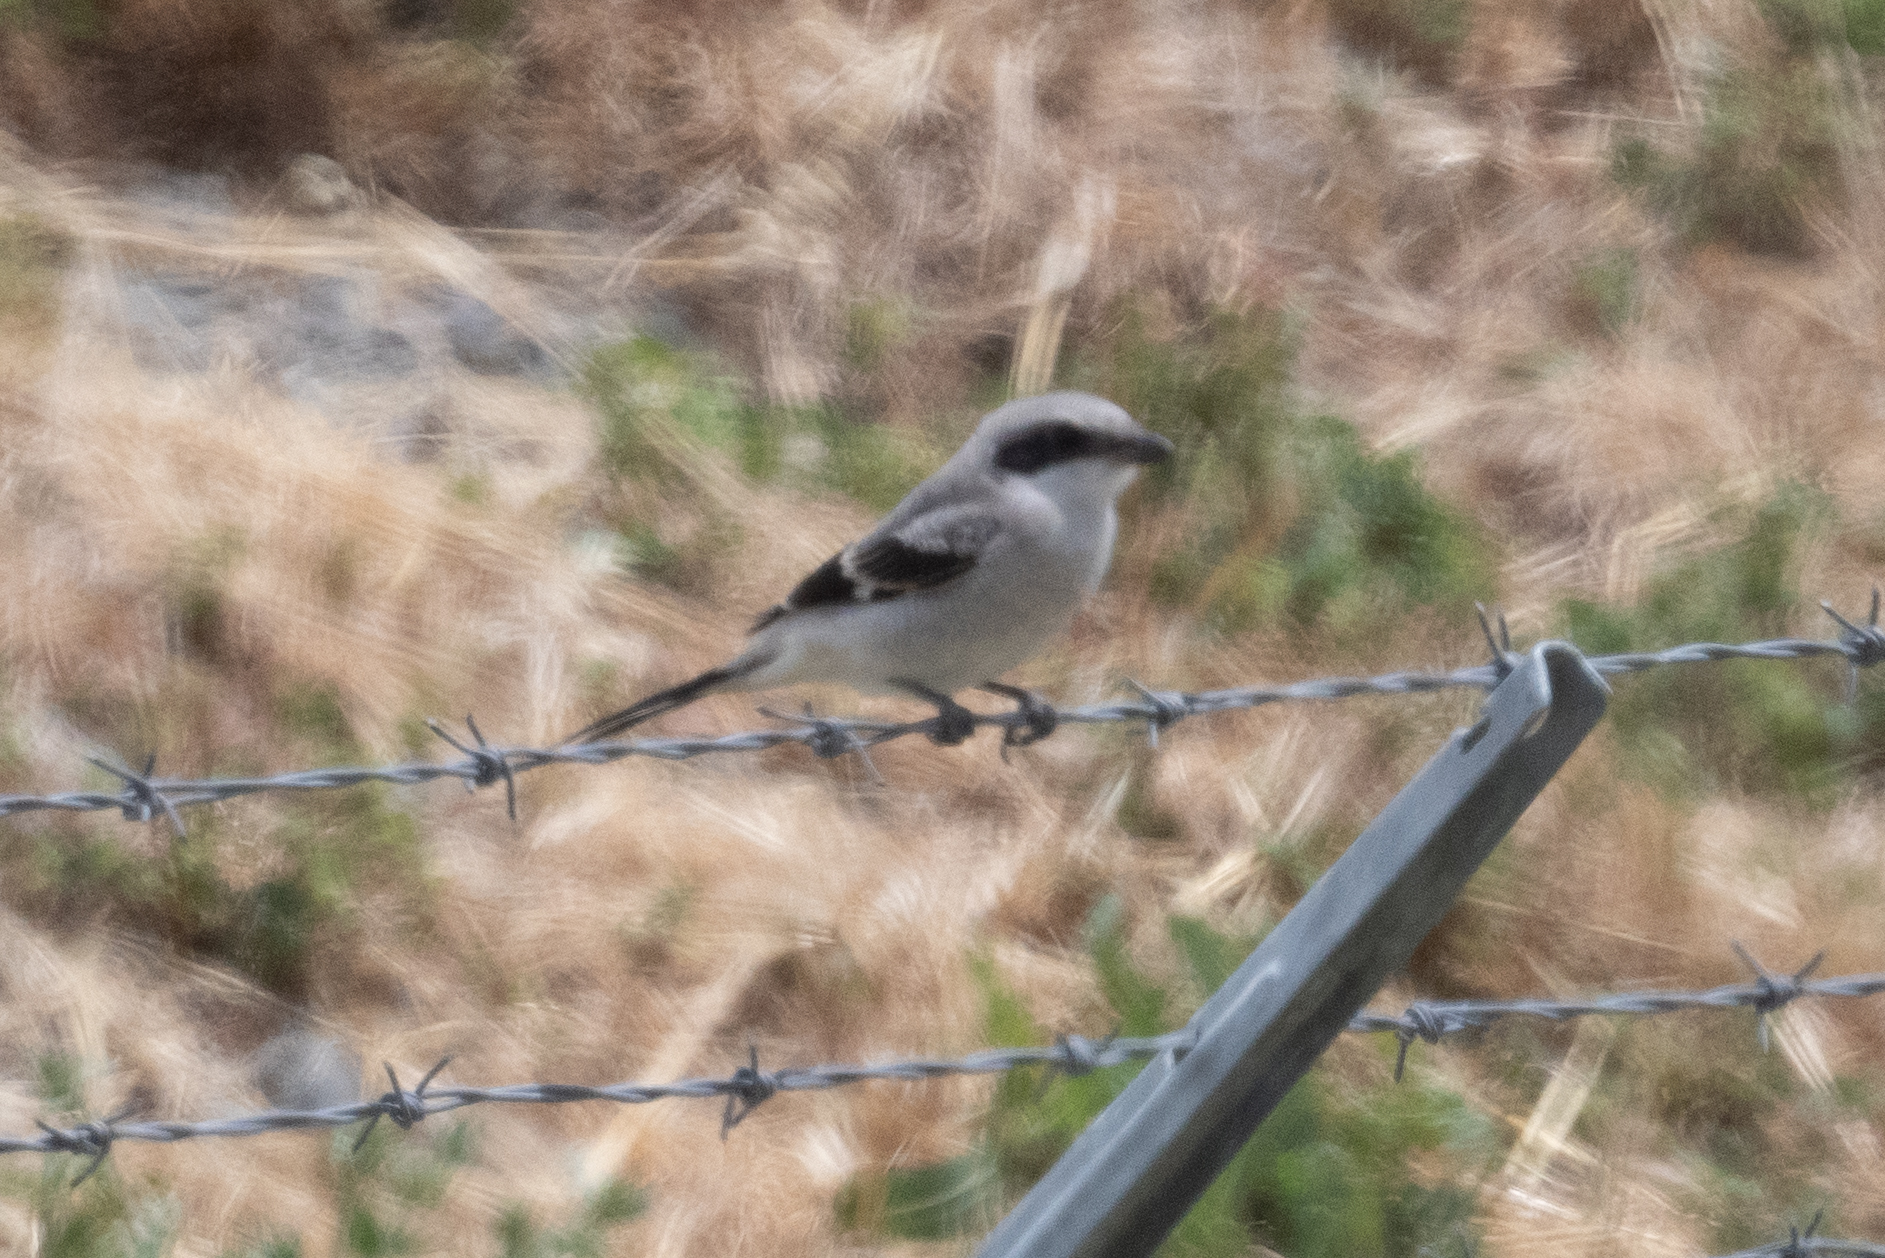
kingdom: Animalia
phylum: Chordata
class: Aves
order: Passeriformes
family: Laniidae
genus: Lanius
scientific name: Lanius ludovicianus
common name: Loggerhead shrike
